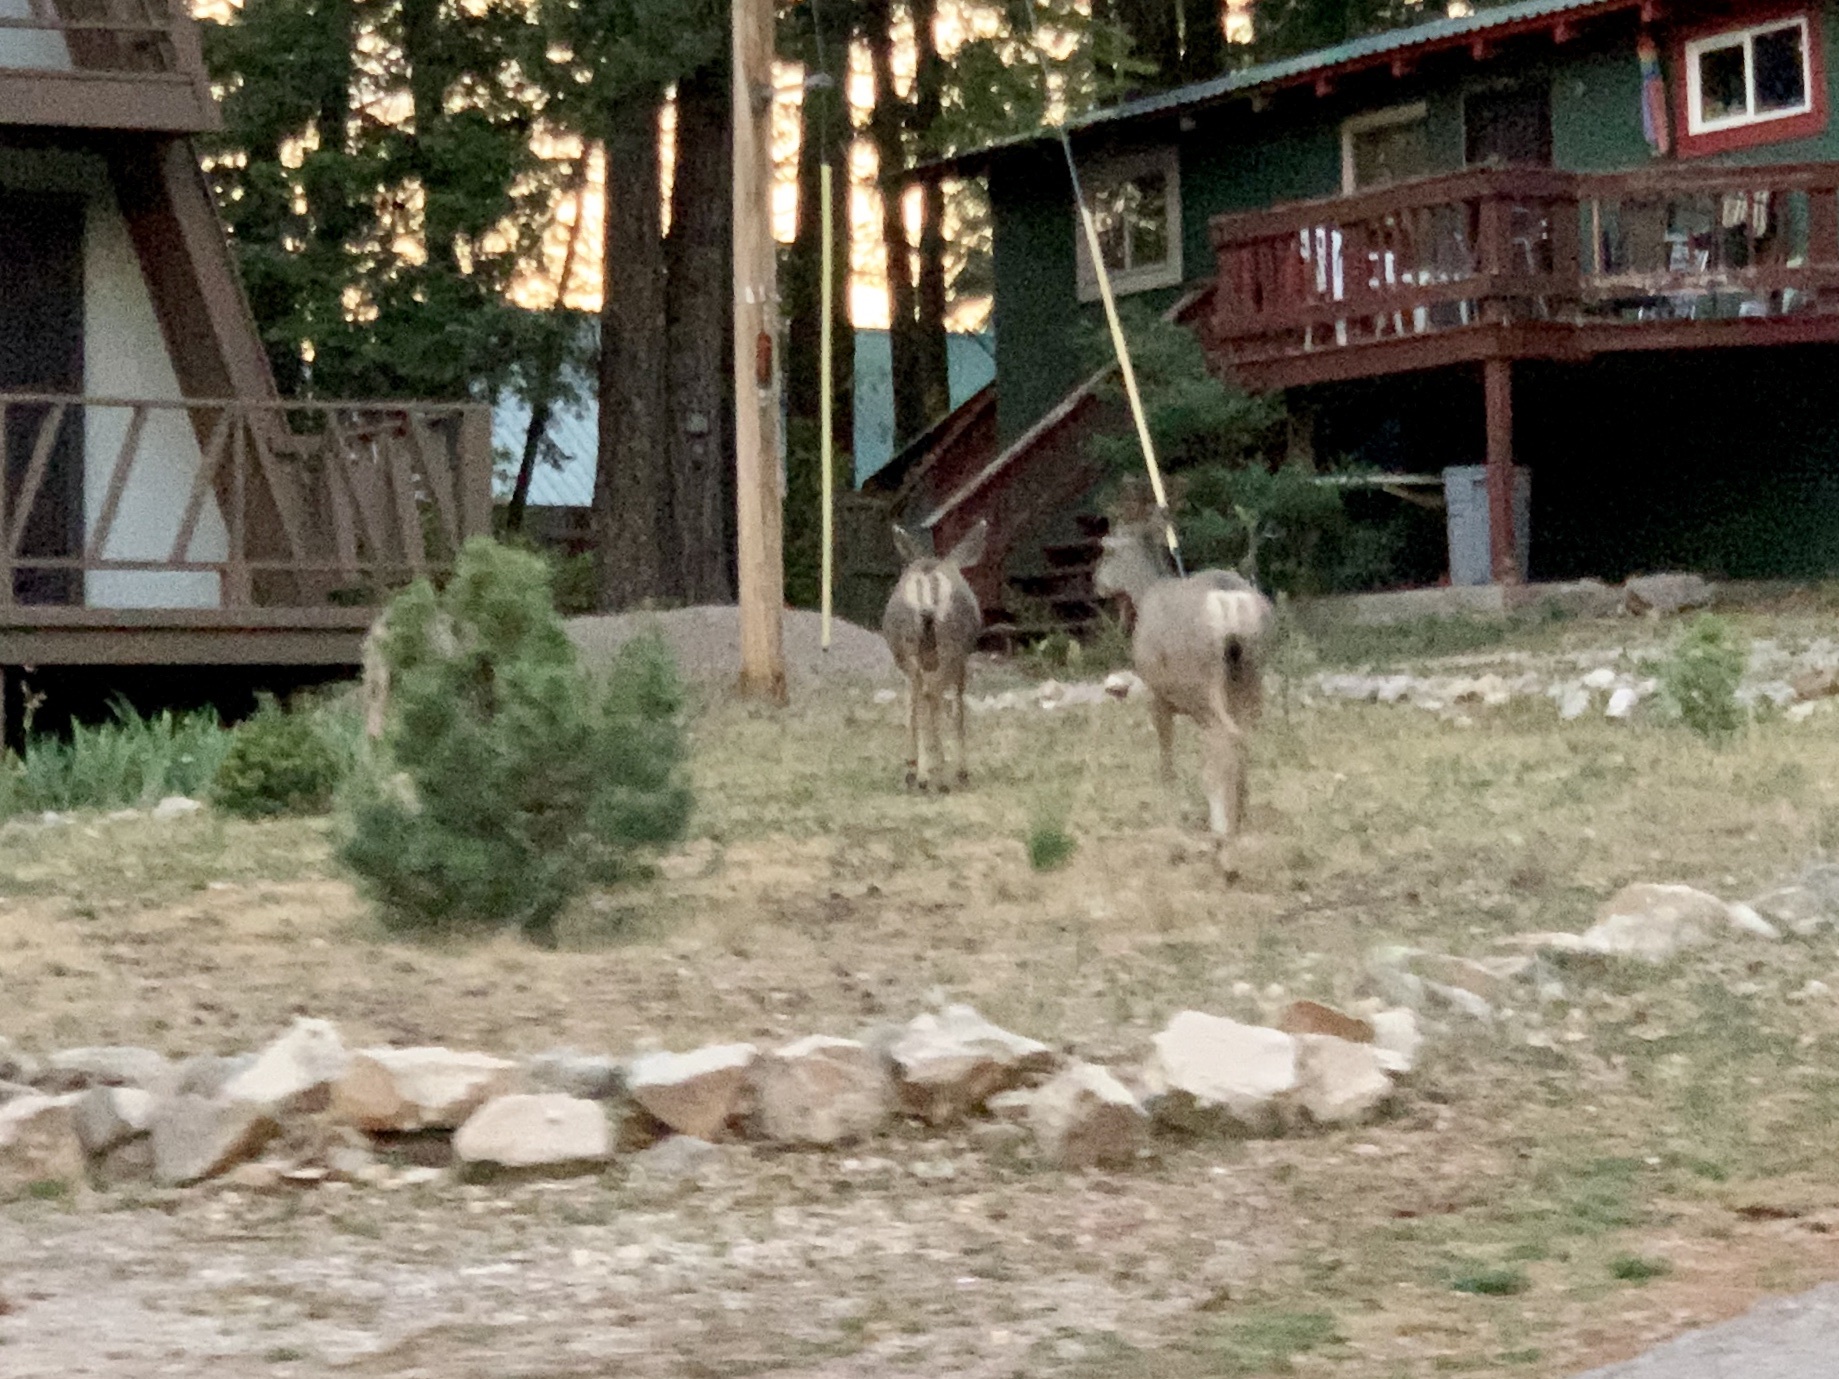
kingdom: Animalia
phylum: Chordata
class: Mammalia
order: Artiodactyla
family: Cervidae
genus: Odocoileus
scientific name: Odocoileus hemionus
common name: Mule deer
